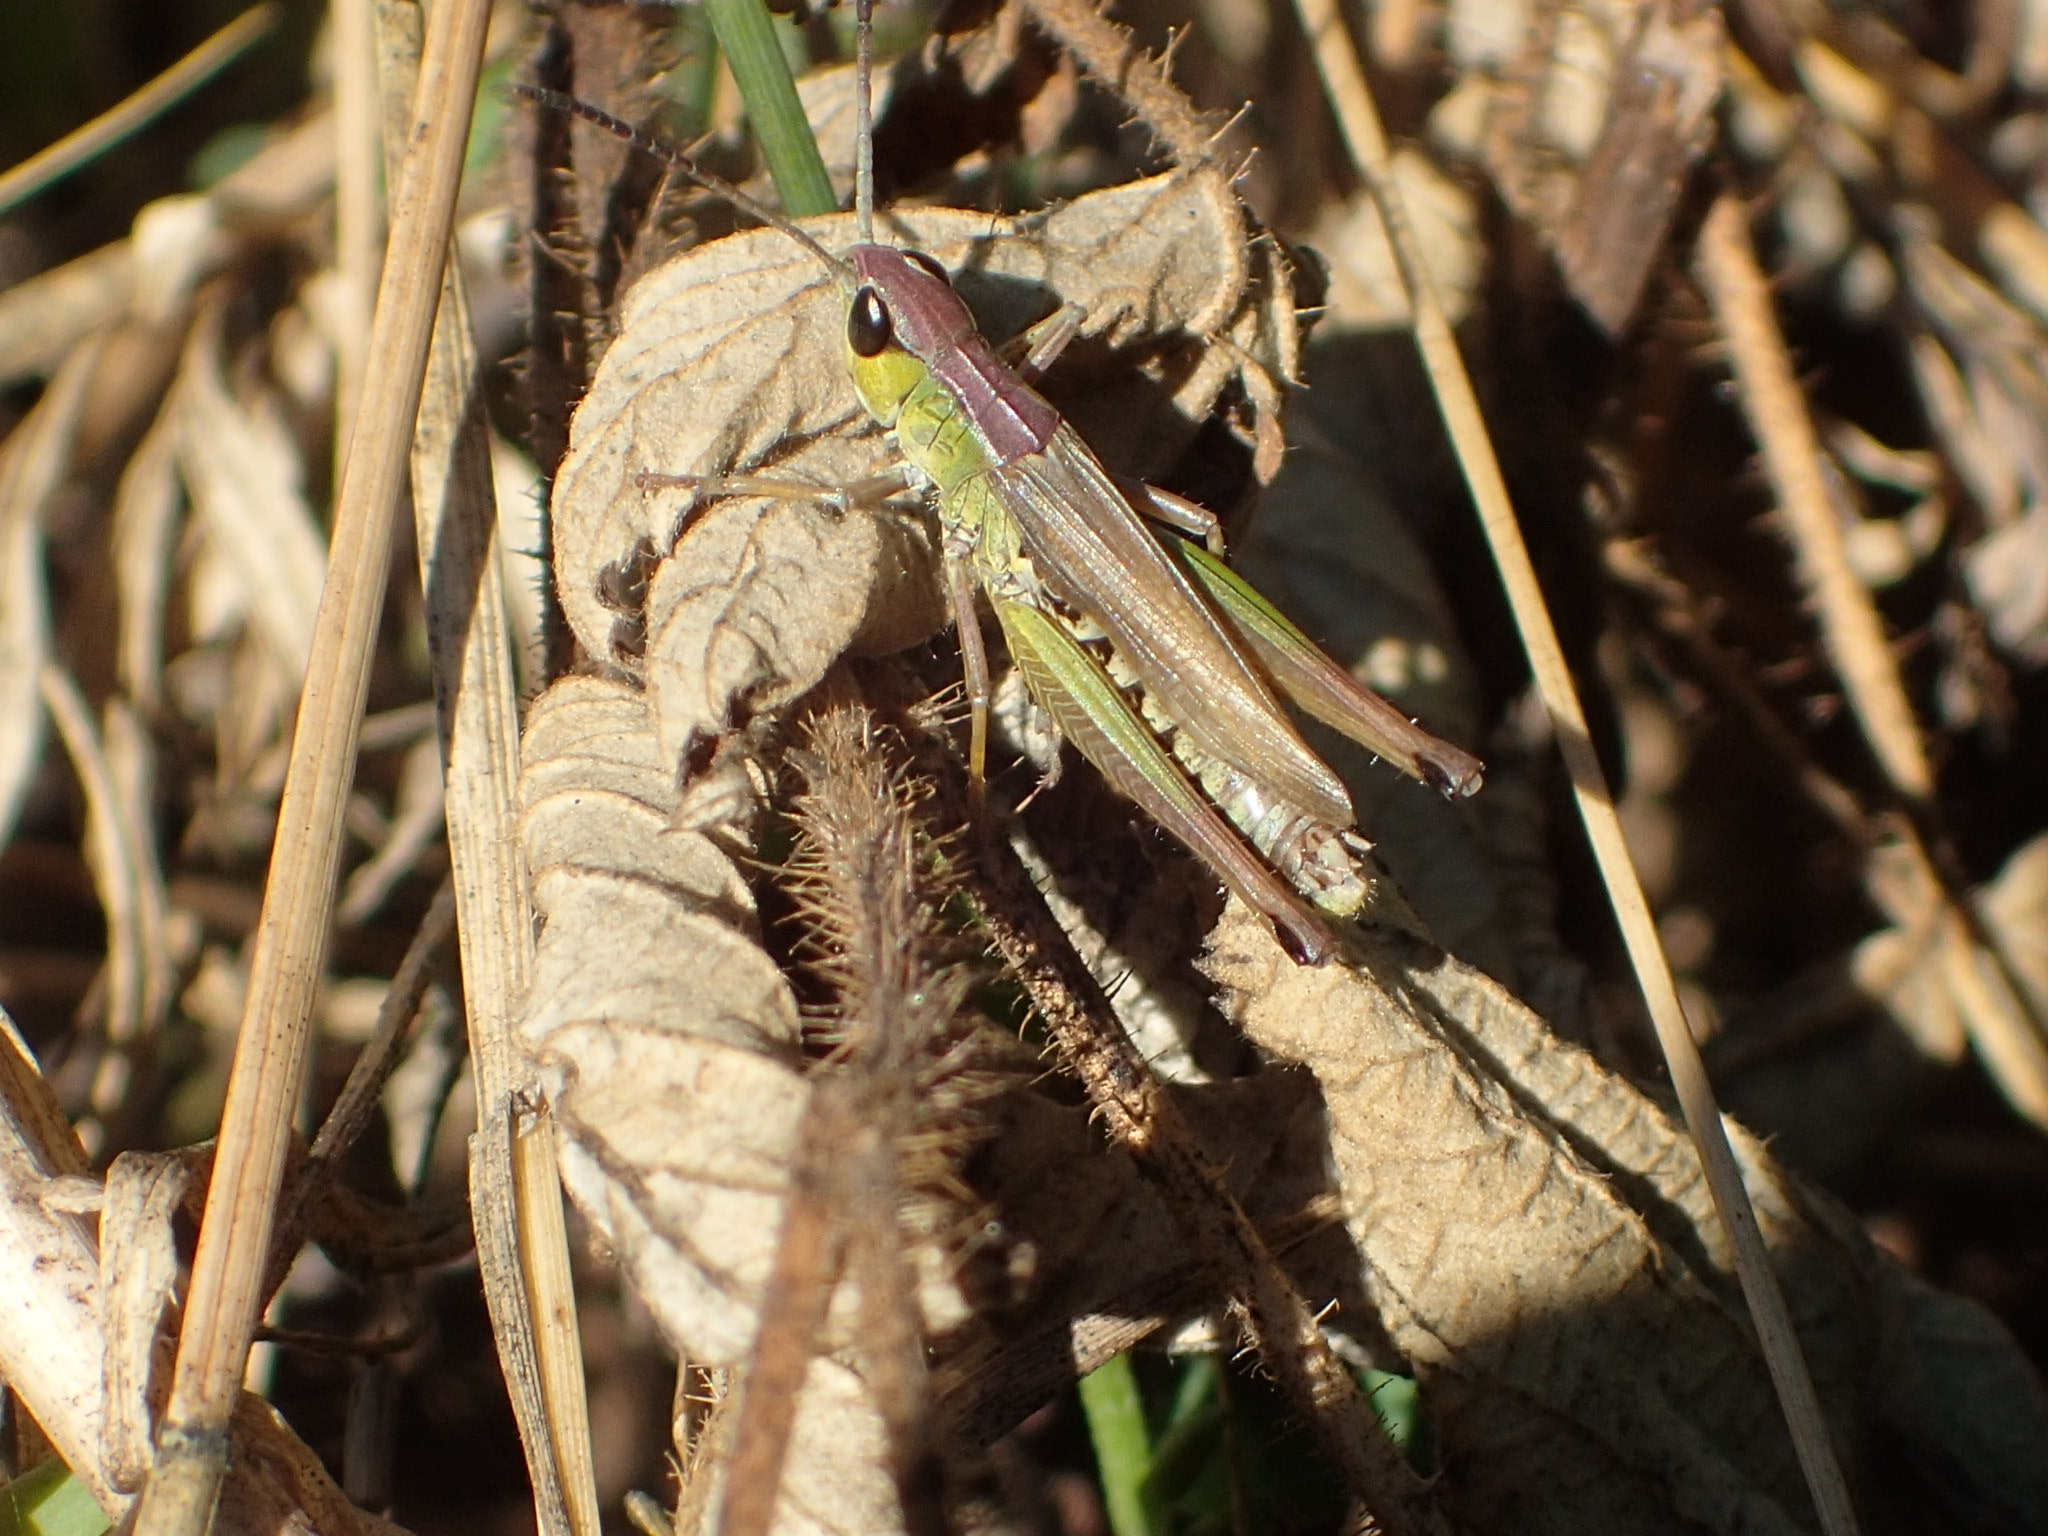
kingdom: Animalia
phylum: Arthropoda
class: Insecta
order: Orthoptera
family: Acrididae
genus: Pseudochorthippus
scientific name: Pseudochorthippus curtipennis
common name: Marsh meadow grasshopper
